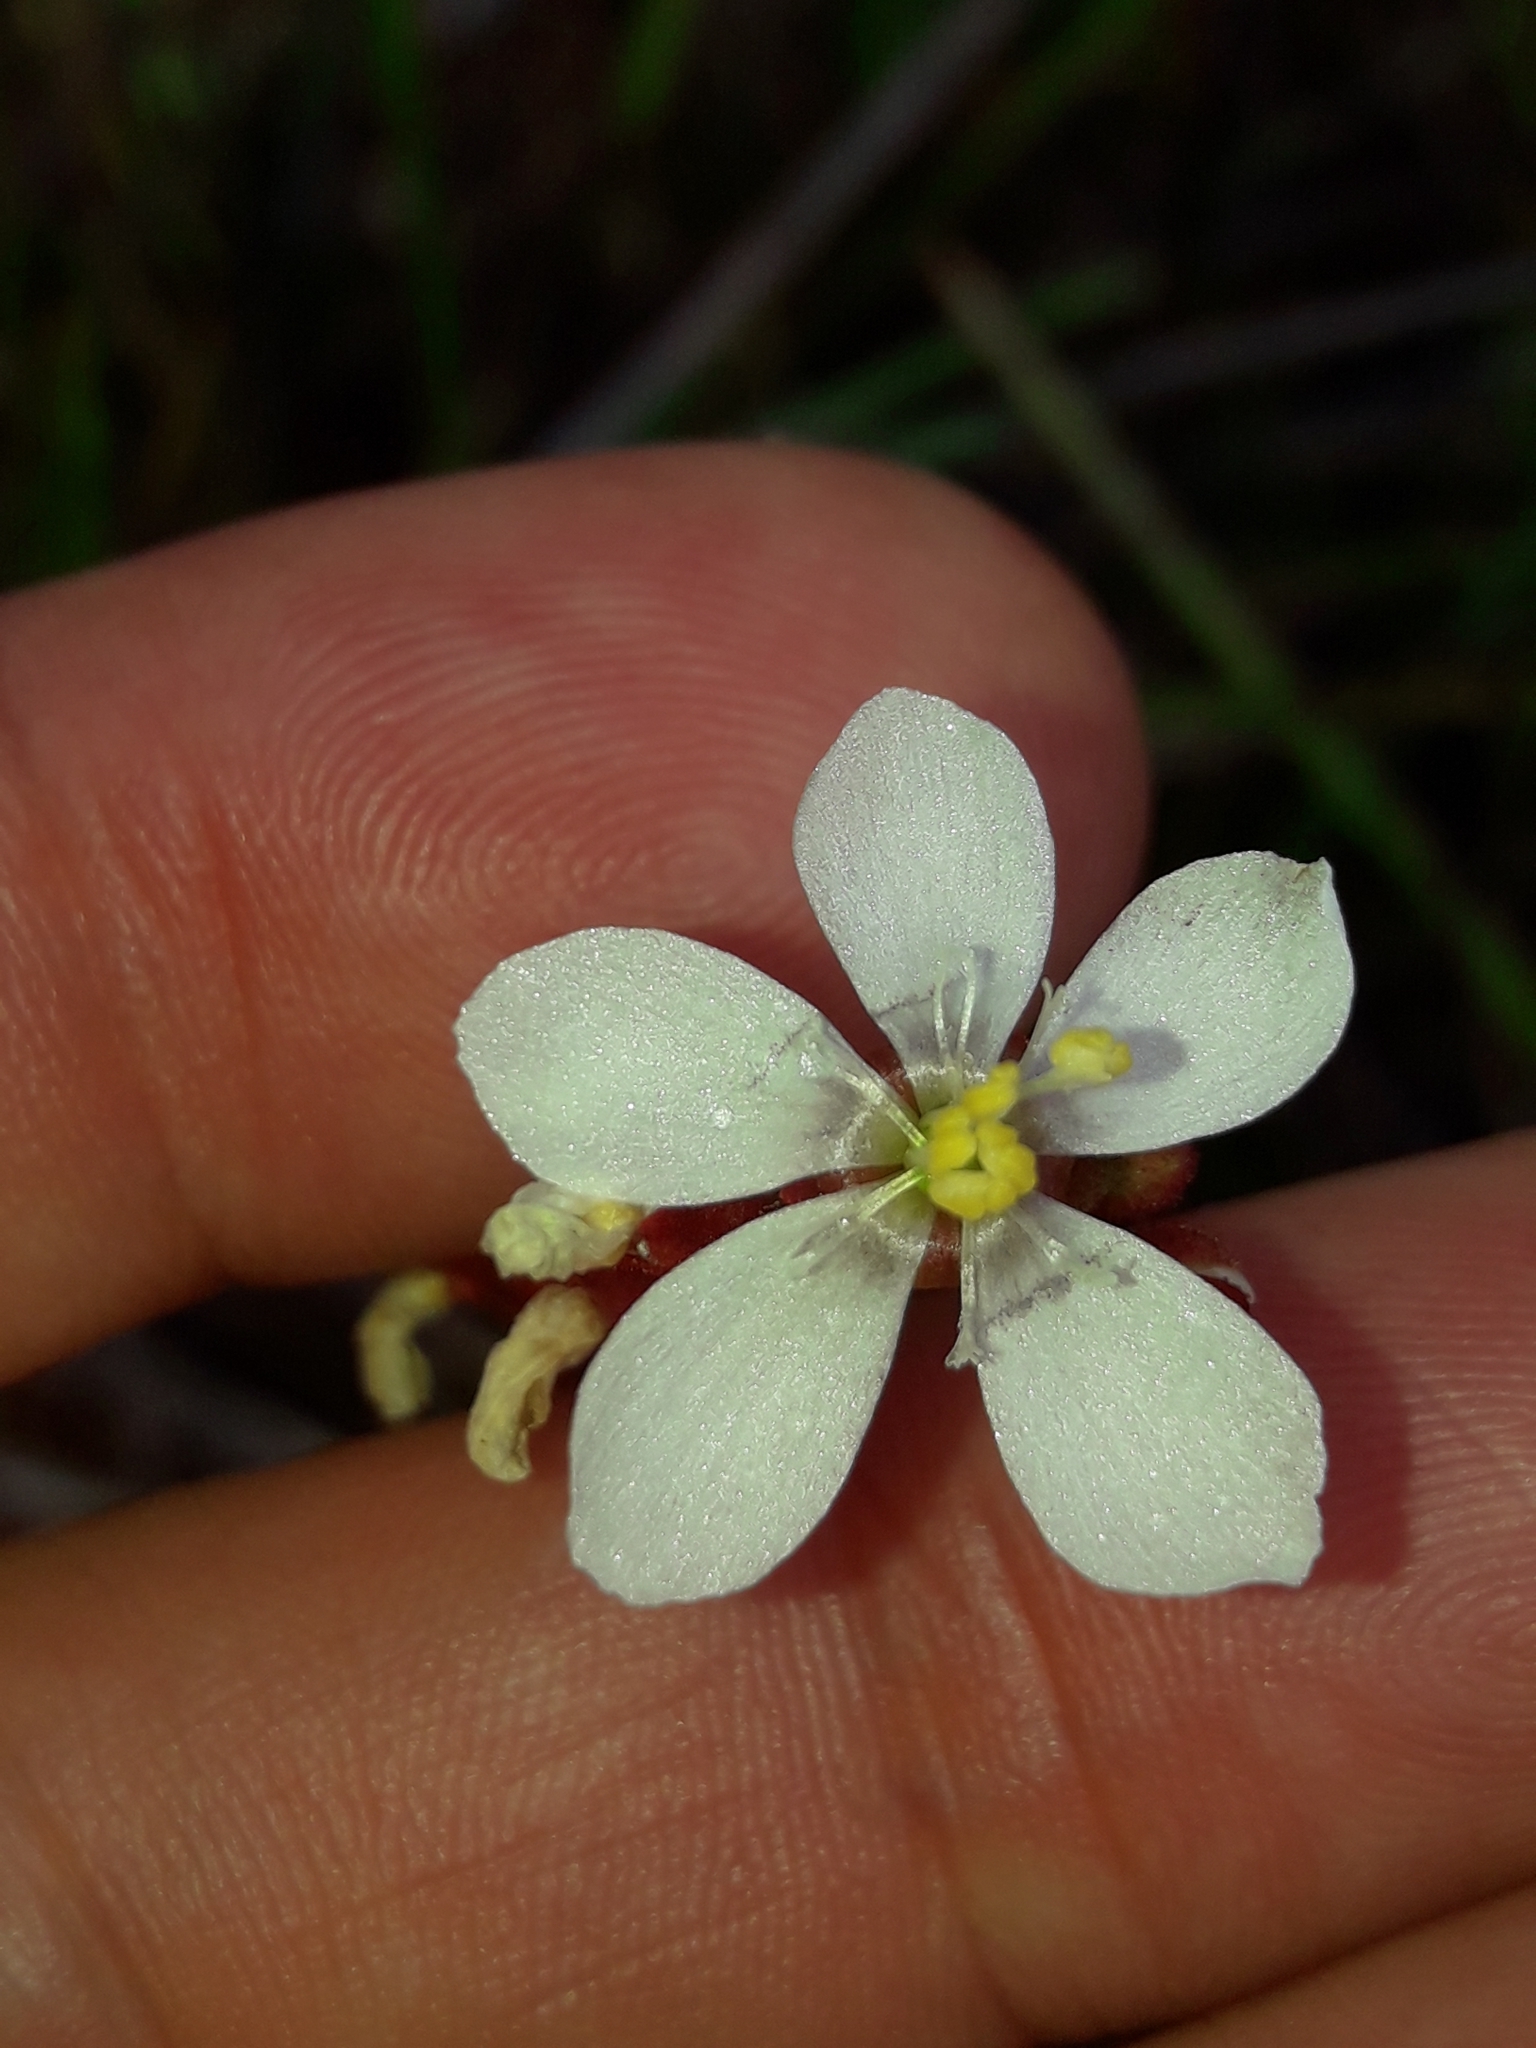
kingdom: Plantae
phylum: Tracheophyta
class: Magnoliopsida
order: Caryophyllales
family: Droseraceae
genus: Drosera
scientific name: Drosera neocaledonica
